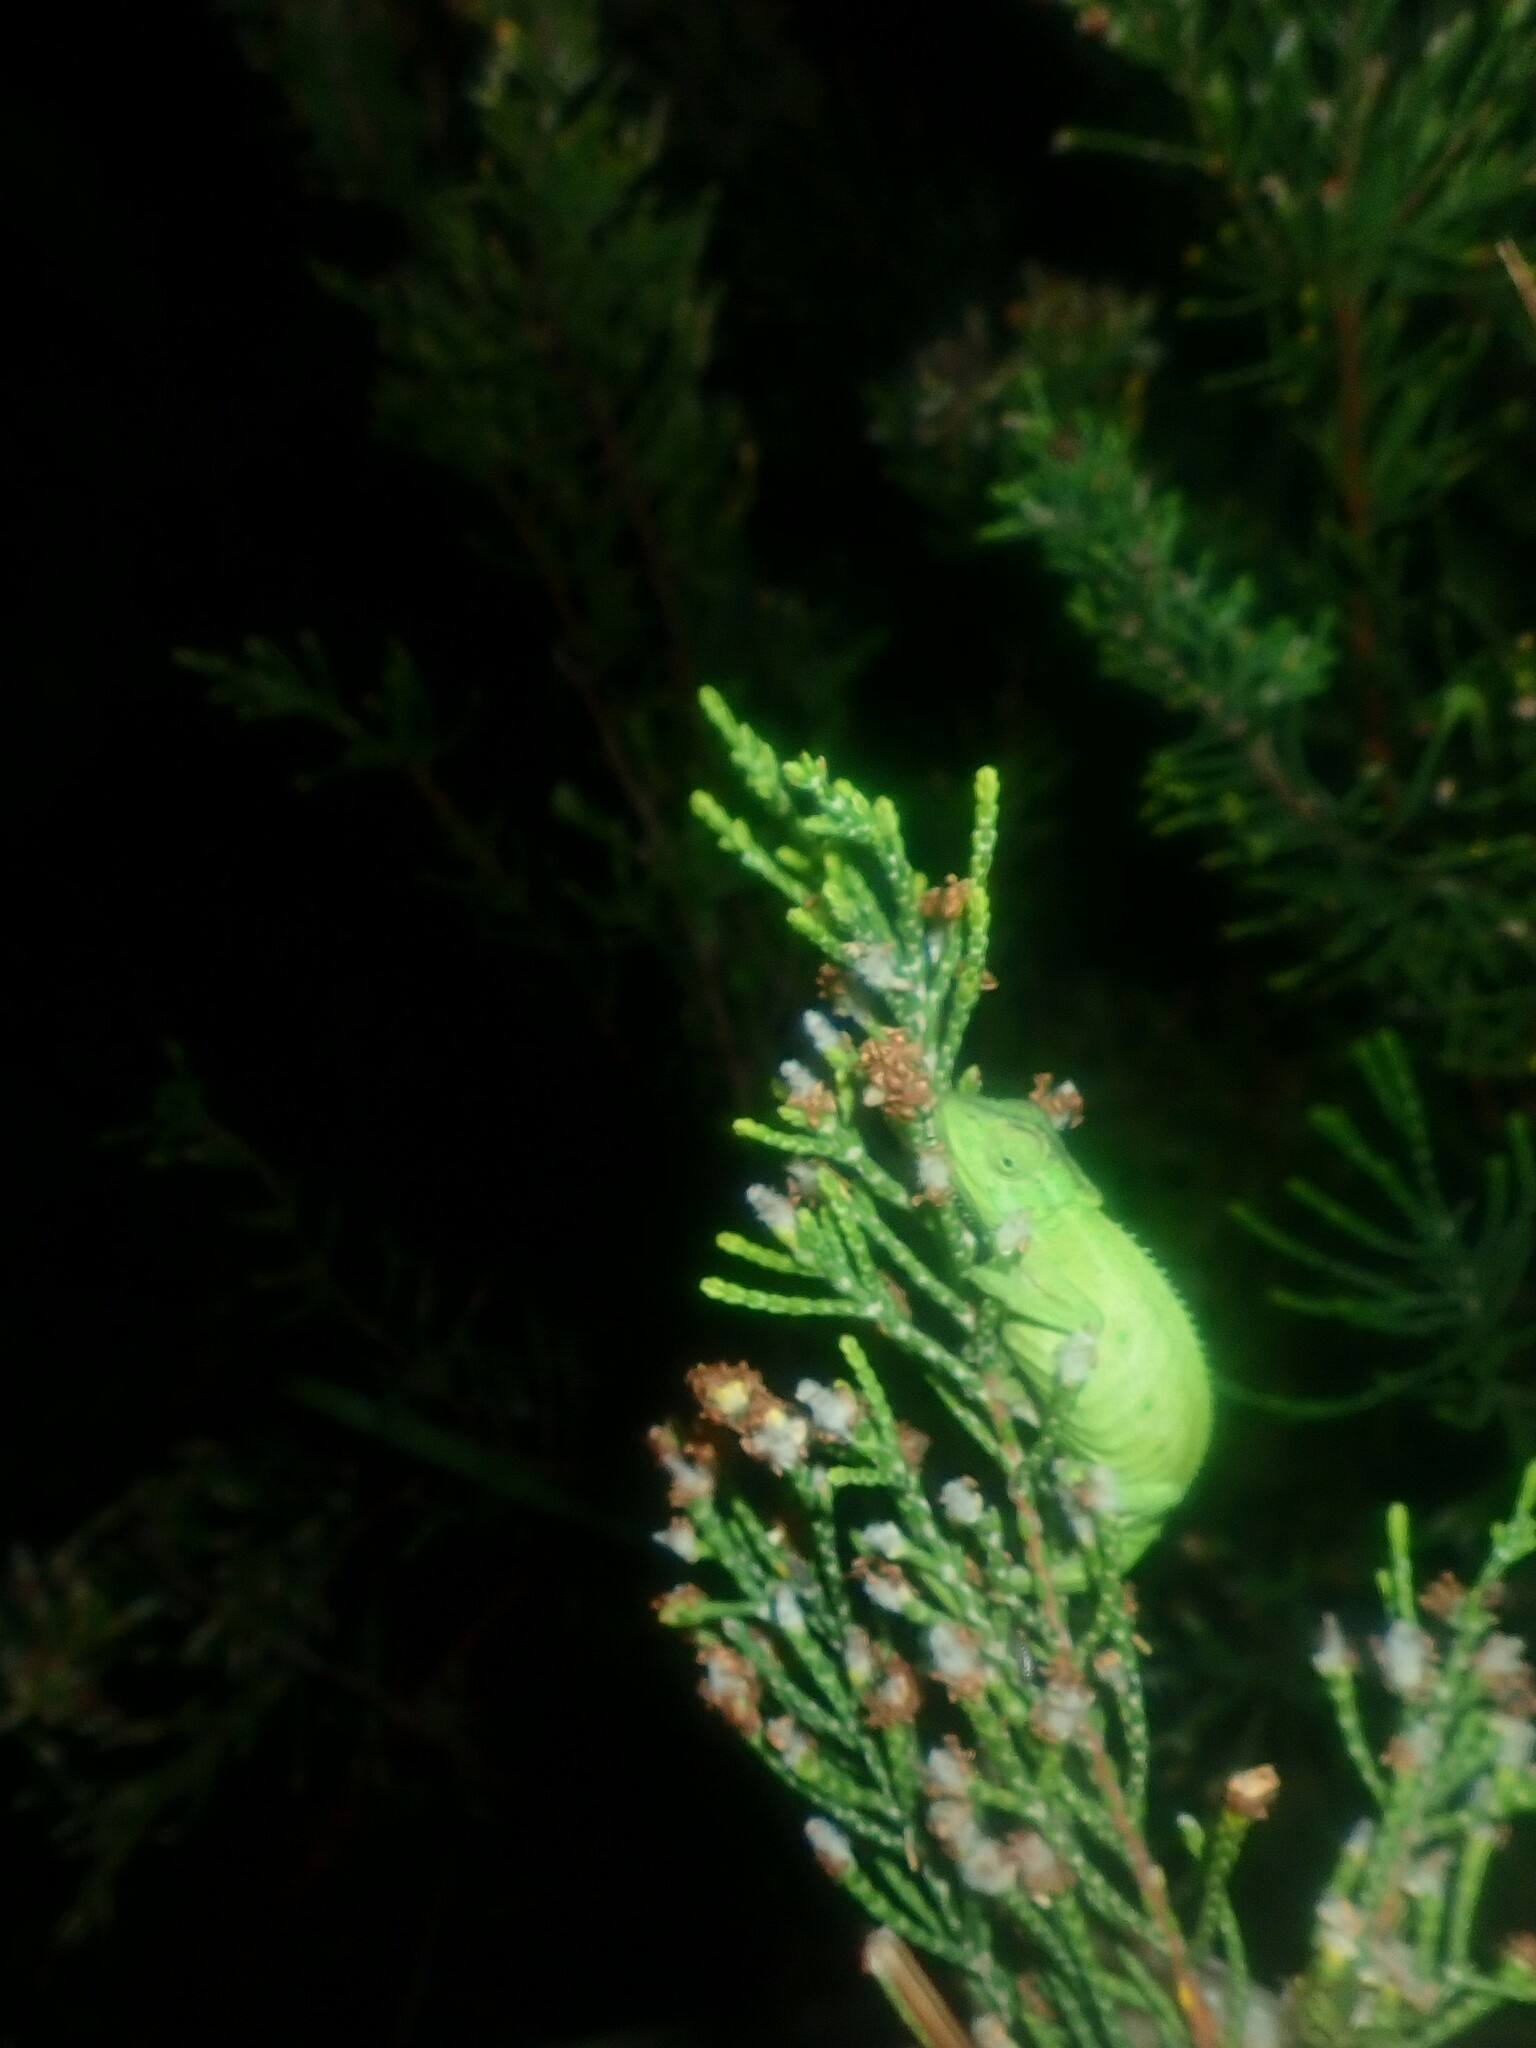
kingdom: Animalia
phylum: Chordata
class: Squamata
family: Chamaeleonidae
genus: Bradypodion
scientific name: Bradypodion pumilum
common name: Cape dwarf chameleon
